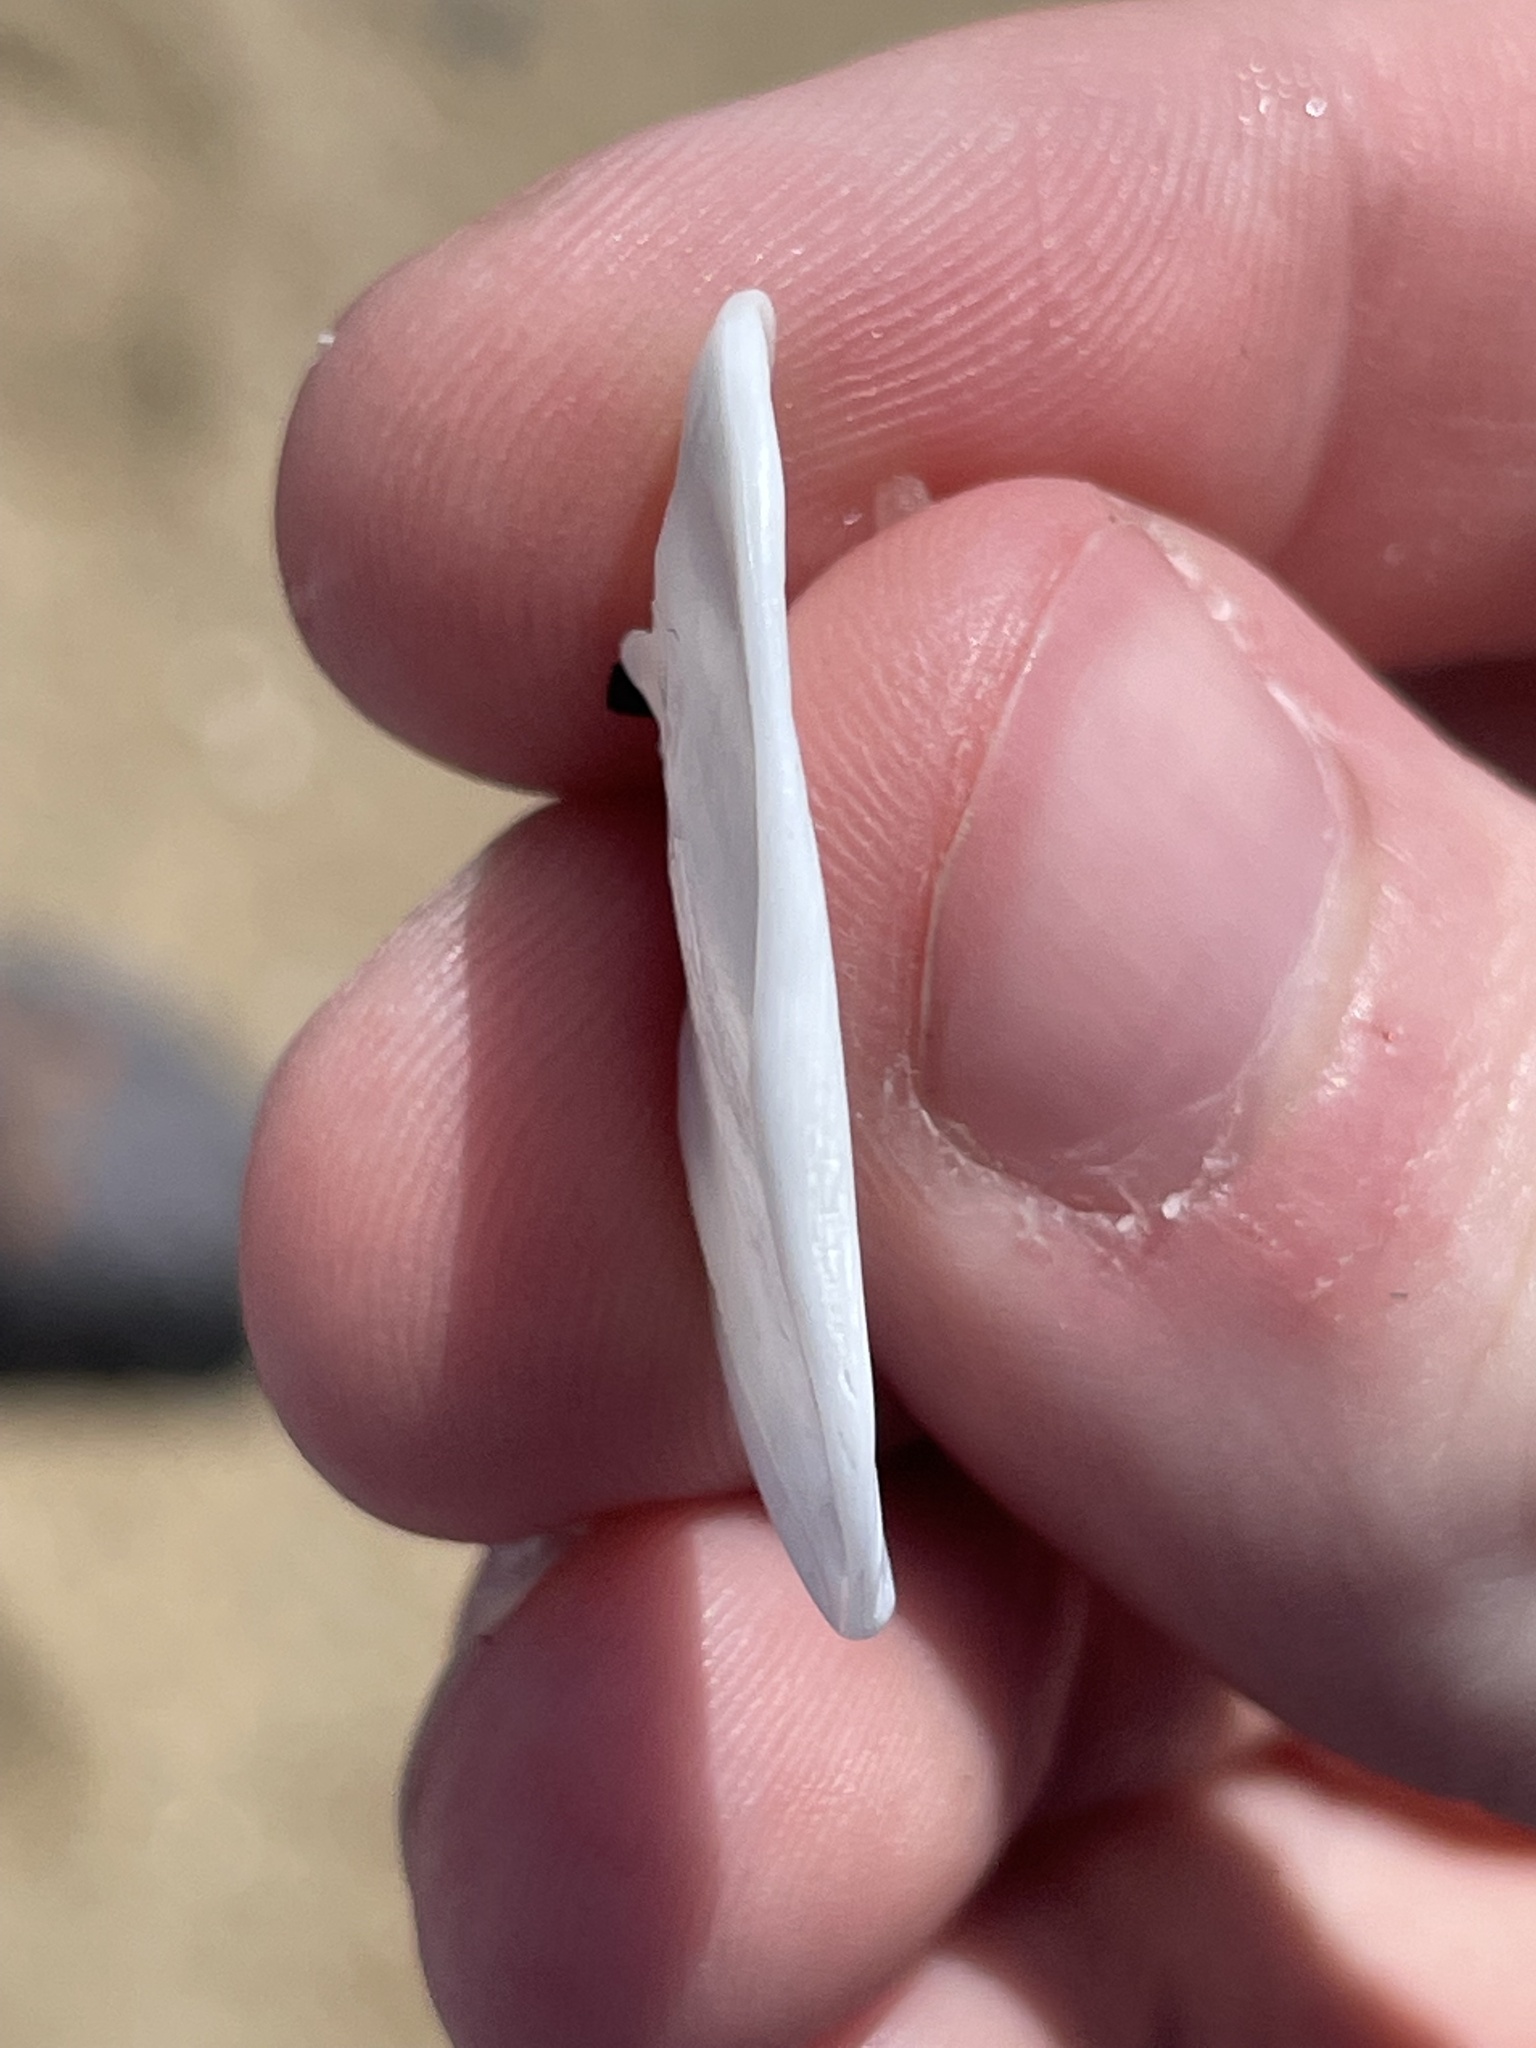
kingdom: Animalia
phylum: Mollusca
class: Gastropoda
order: Littorinimorpha
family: Calyptraeidae
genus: Crepidula
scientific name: Crepidula plana
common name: Eastern white slippersnail
